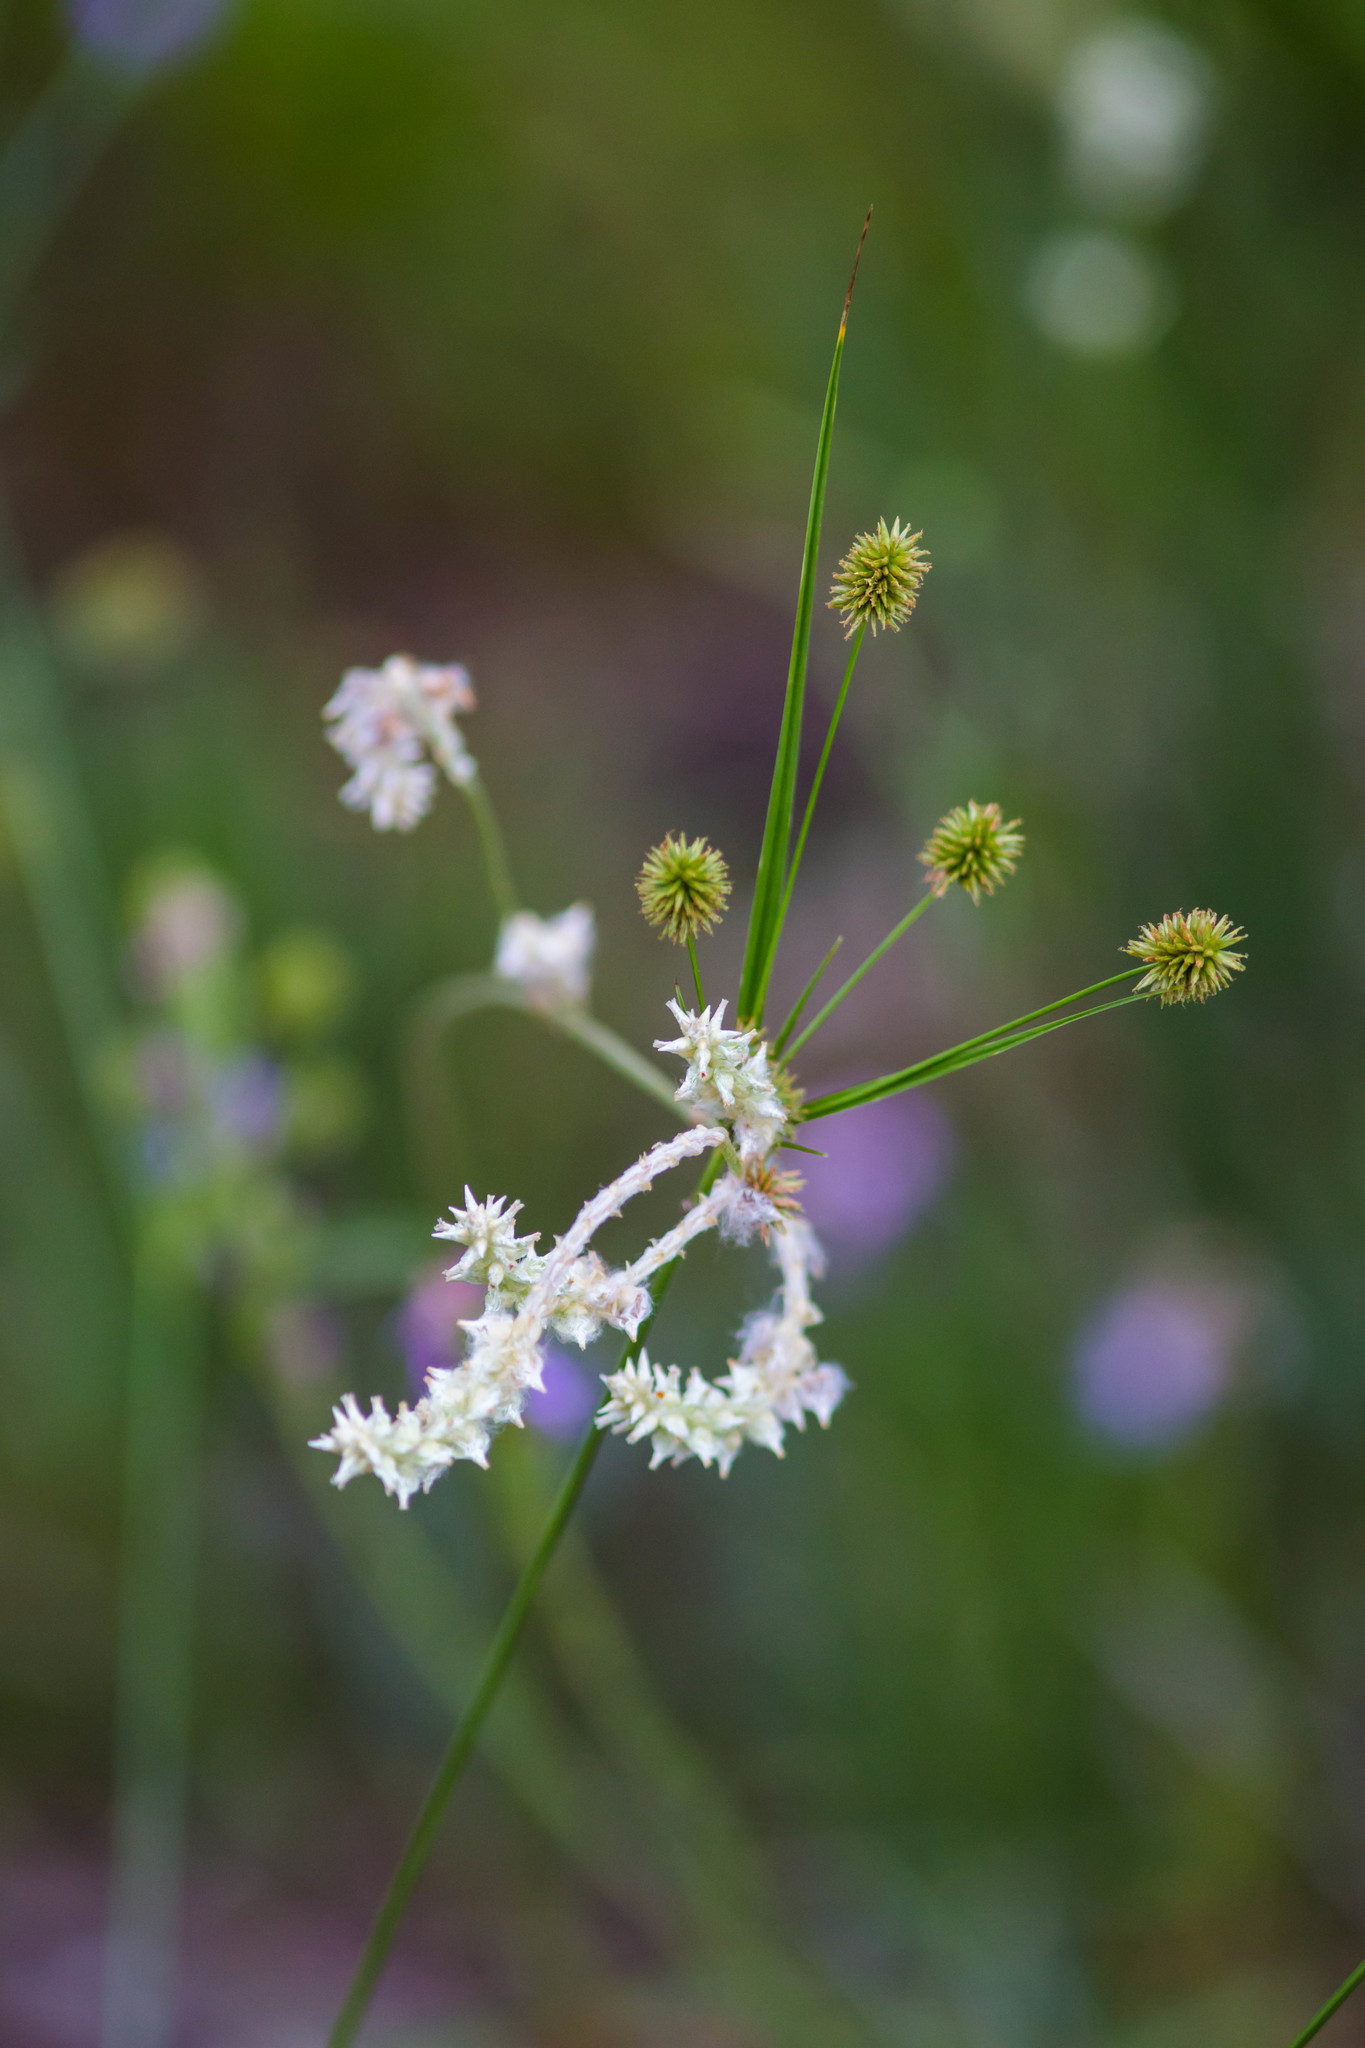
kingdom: Plantae
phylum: Tracheophyta
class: Magnoliopsida
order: Caryophyllales
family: Amaranthaceae
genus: Froelichia
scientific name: Froelichia floridana
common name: Florida snake-cotton
